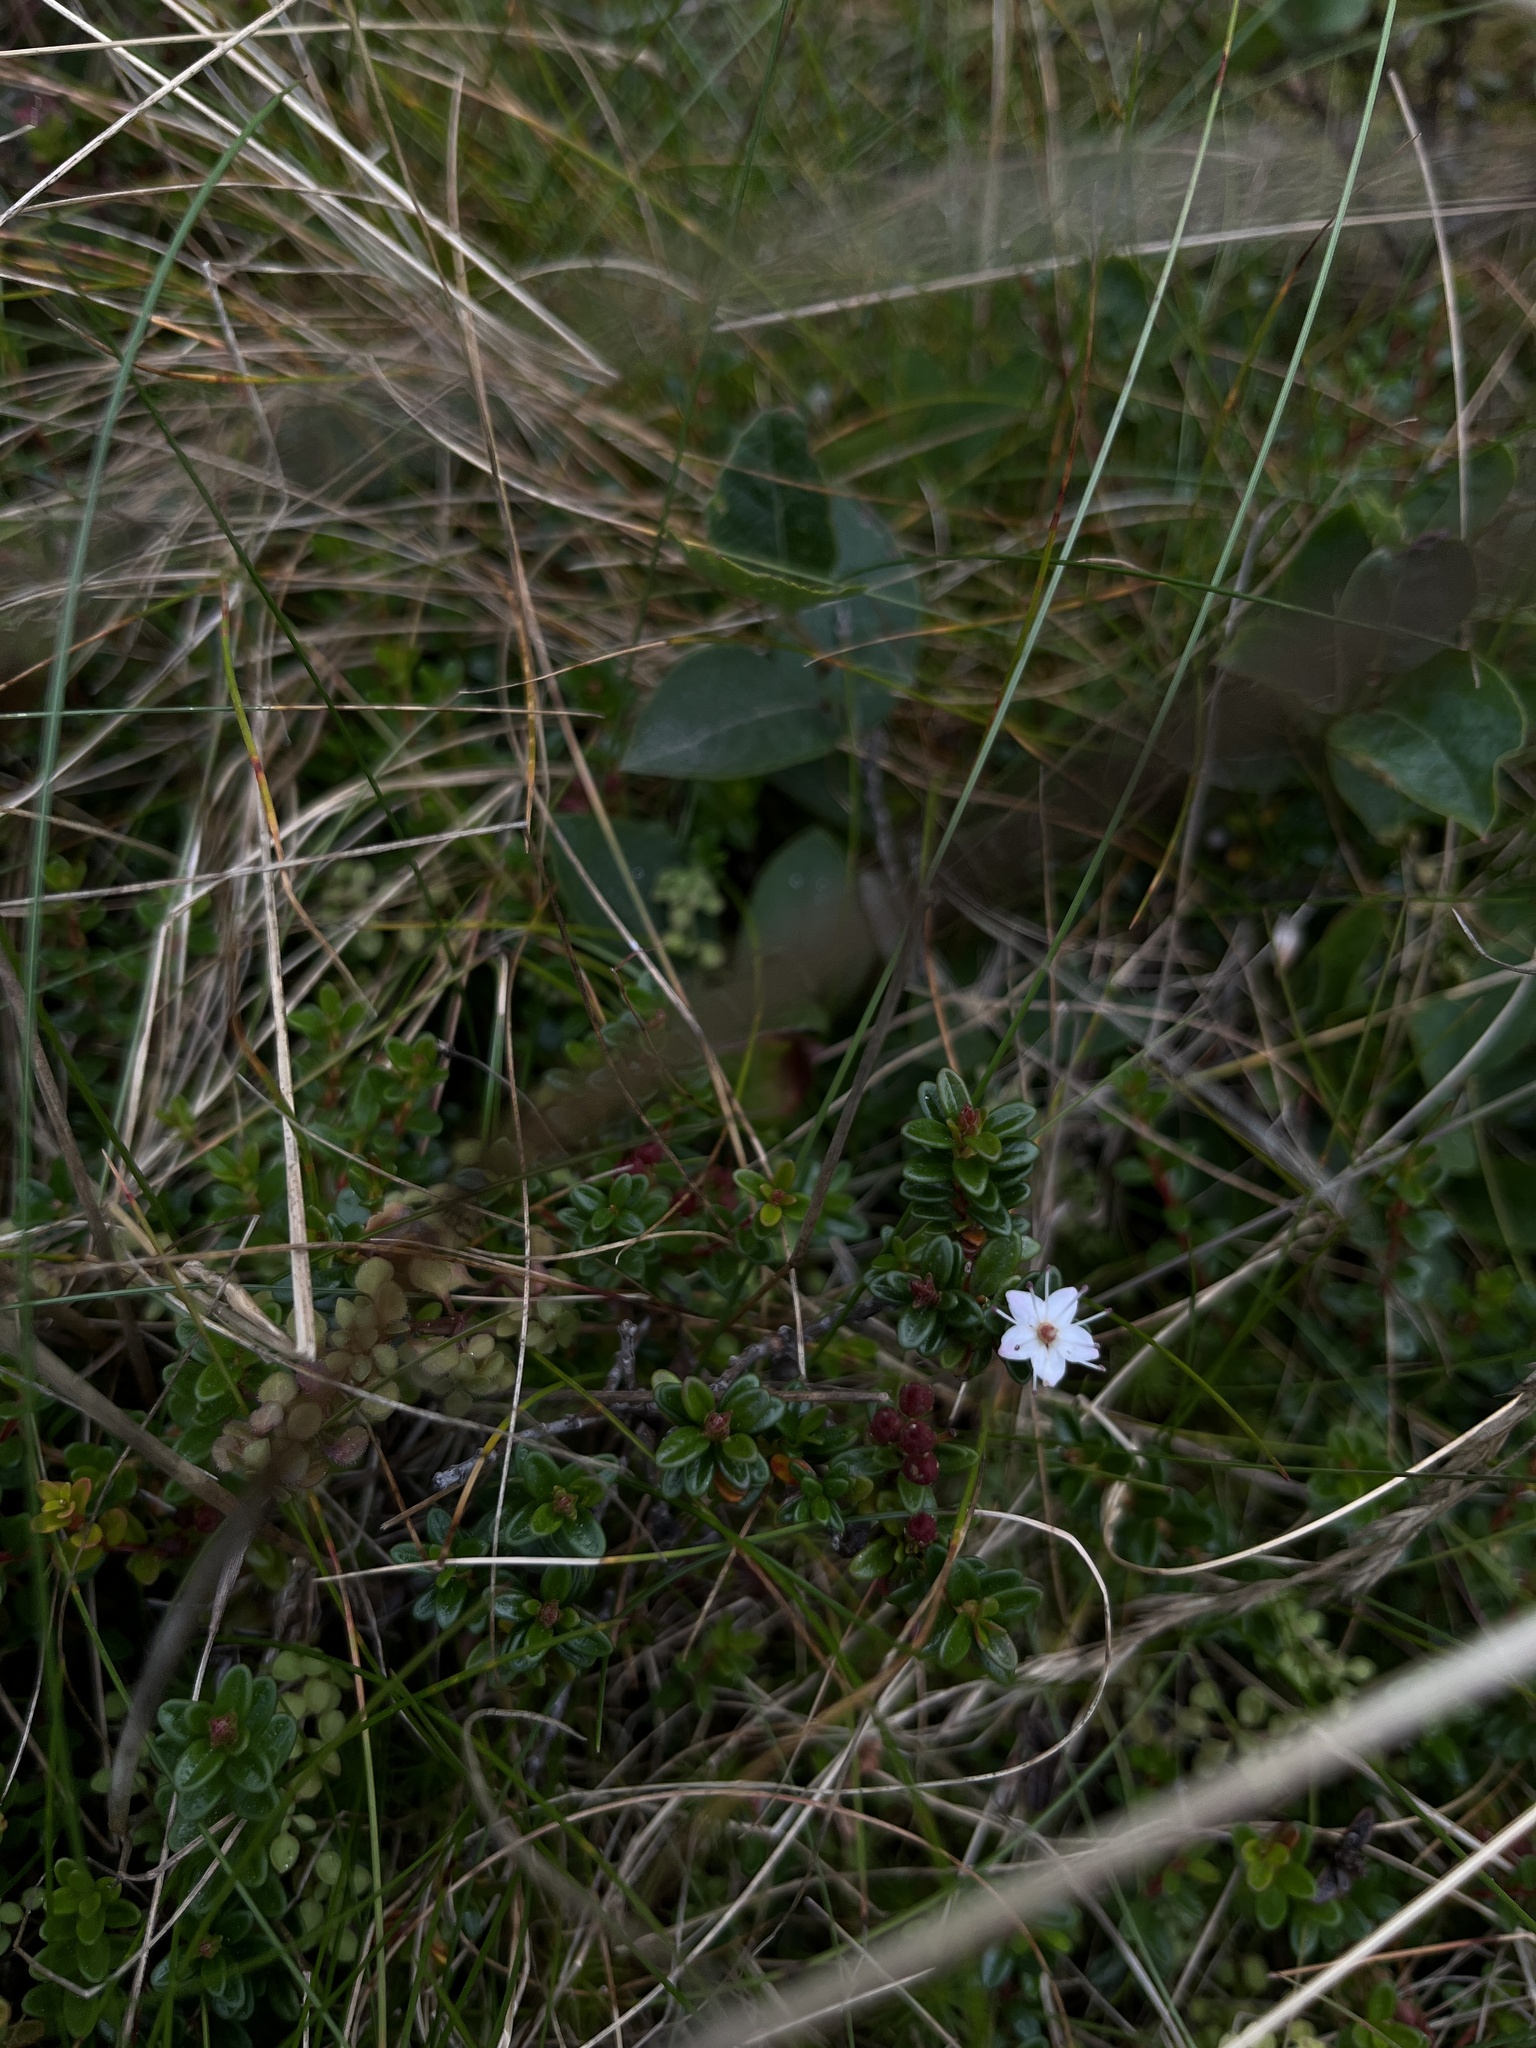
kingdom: Plantae
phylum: Tracheophyta
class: Magnoliopsida
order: Ericales
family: Ericaceae
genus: Kalmia
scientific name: Kalmia buxifolia
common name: Sandmyrtle
